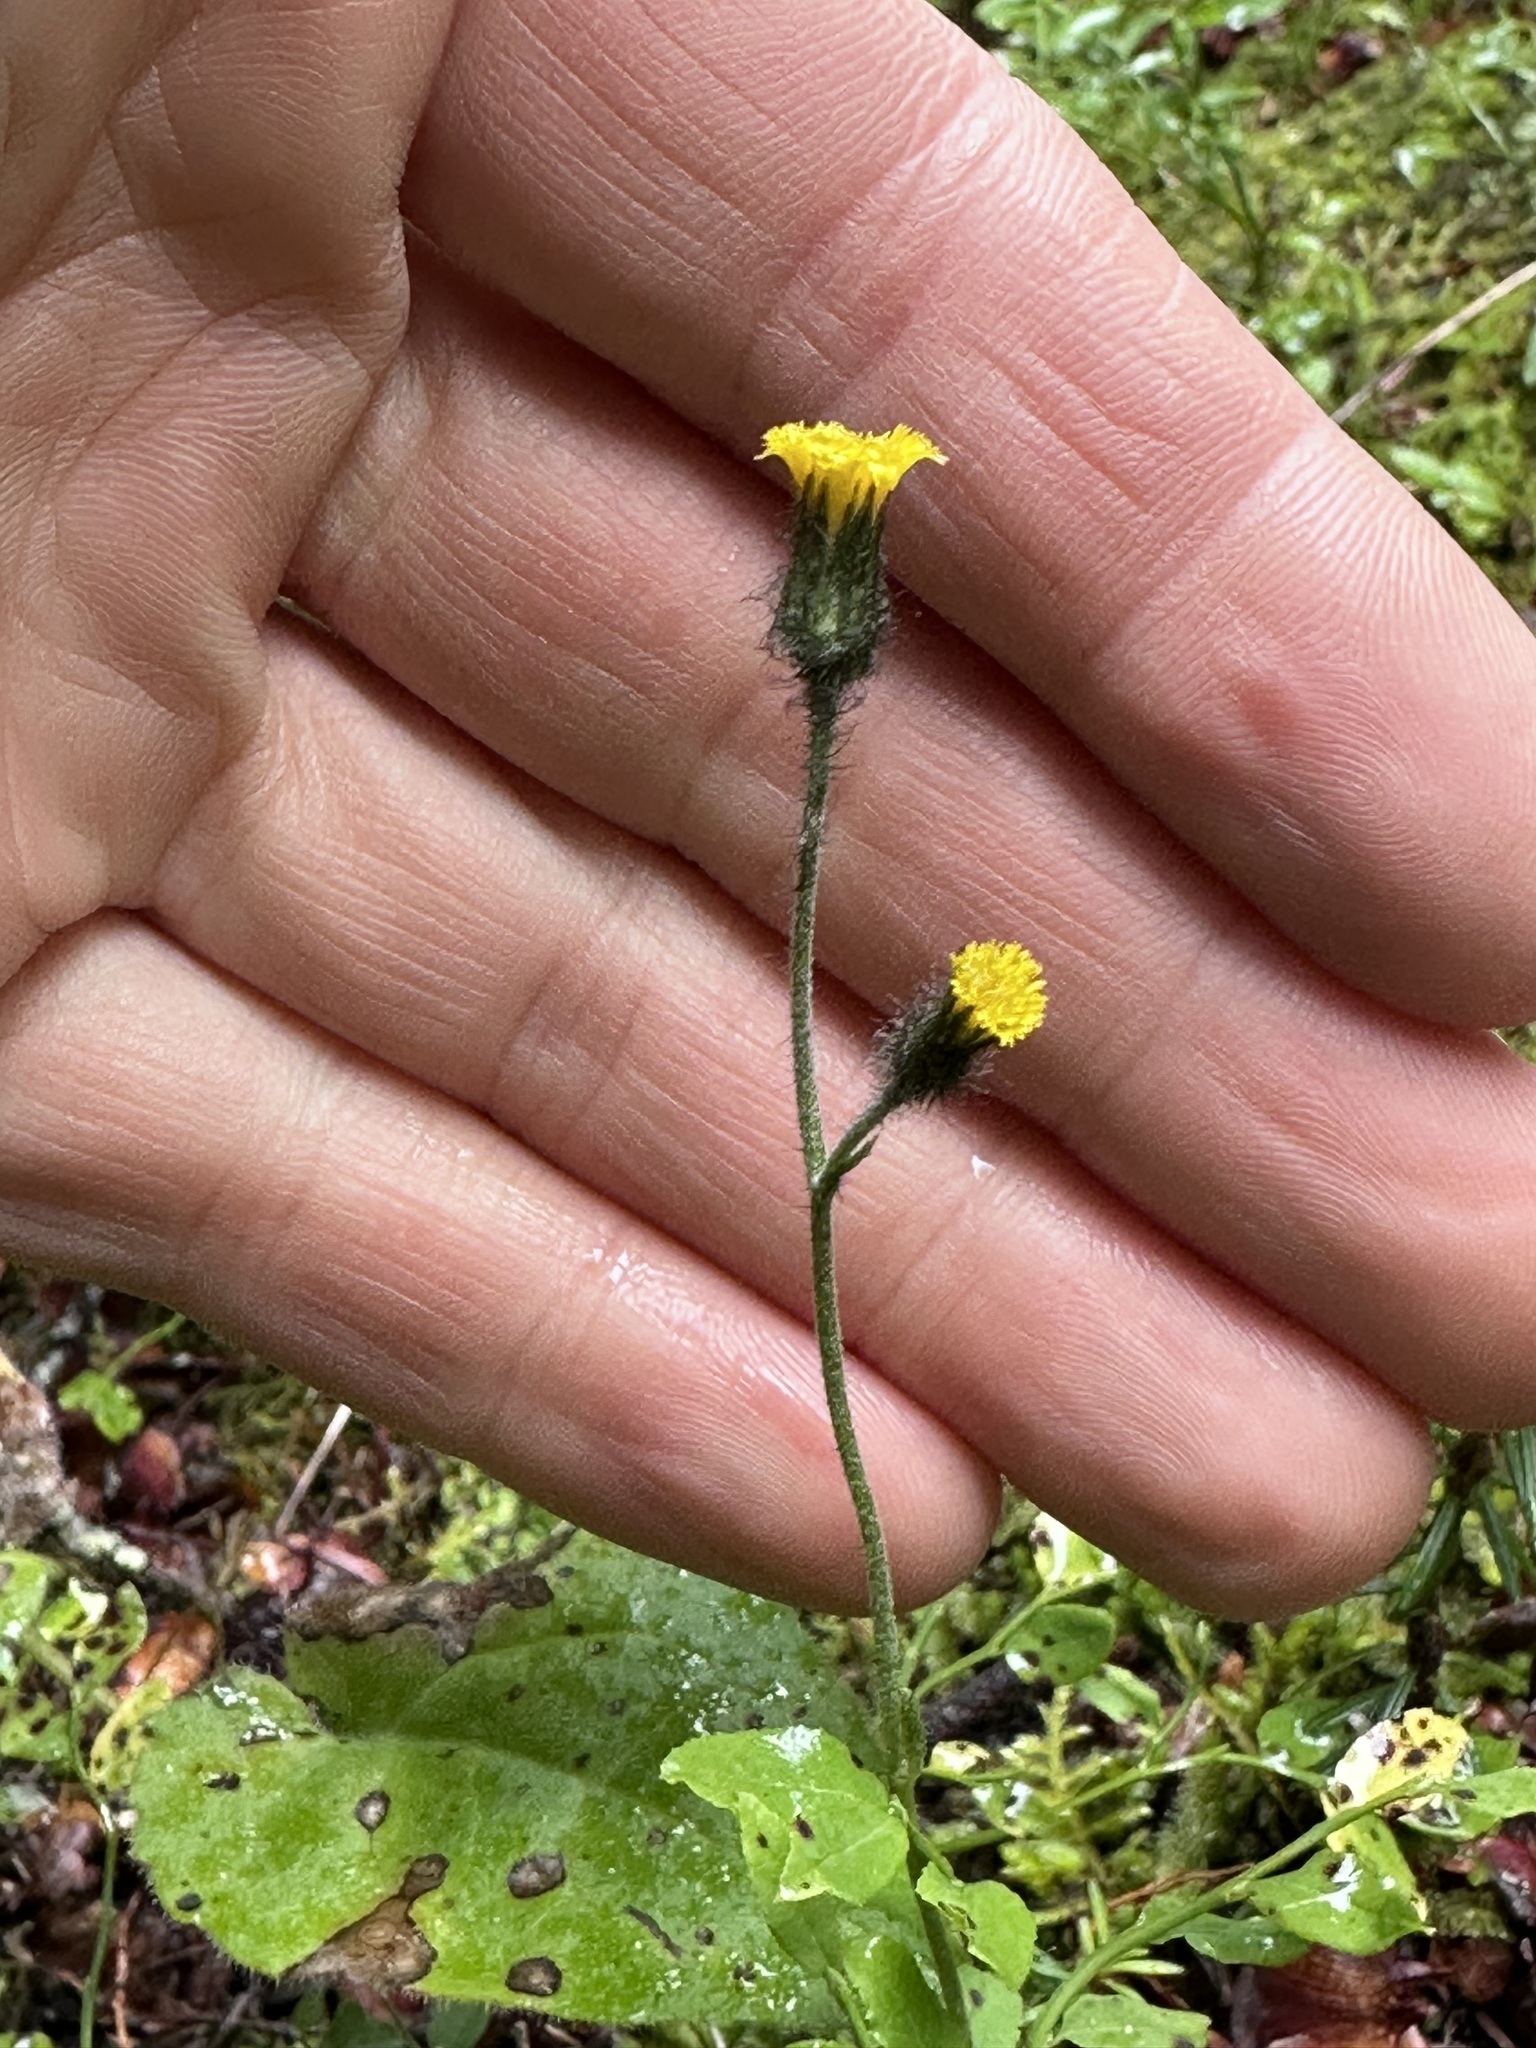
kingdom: Plantae
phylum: Tracheophyta
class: Magnoliopsida
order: Asterales
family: Asteraceae
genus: Hieracium
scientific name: Hieracium triste
